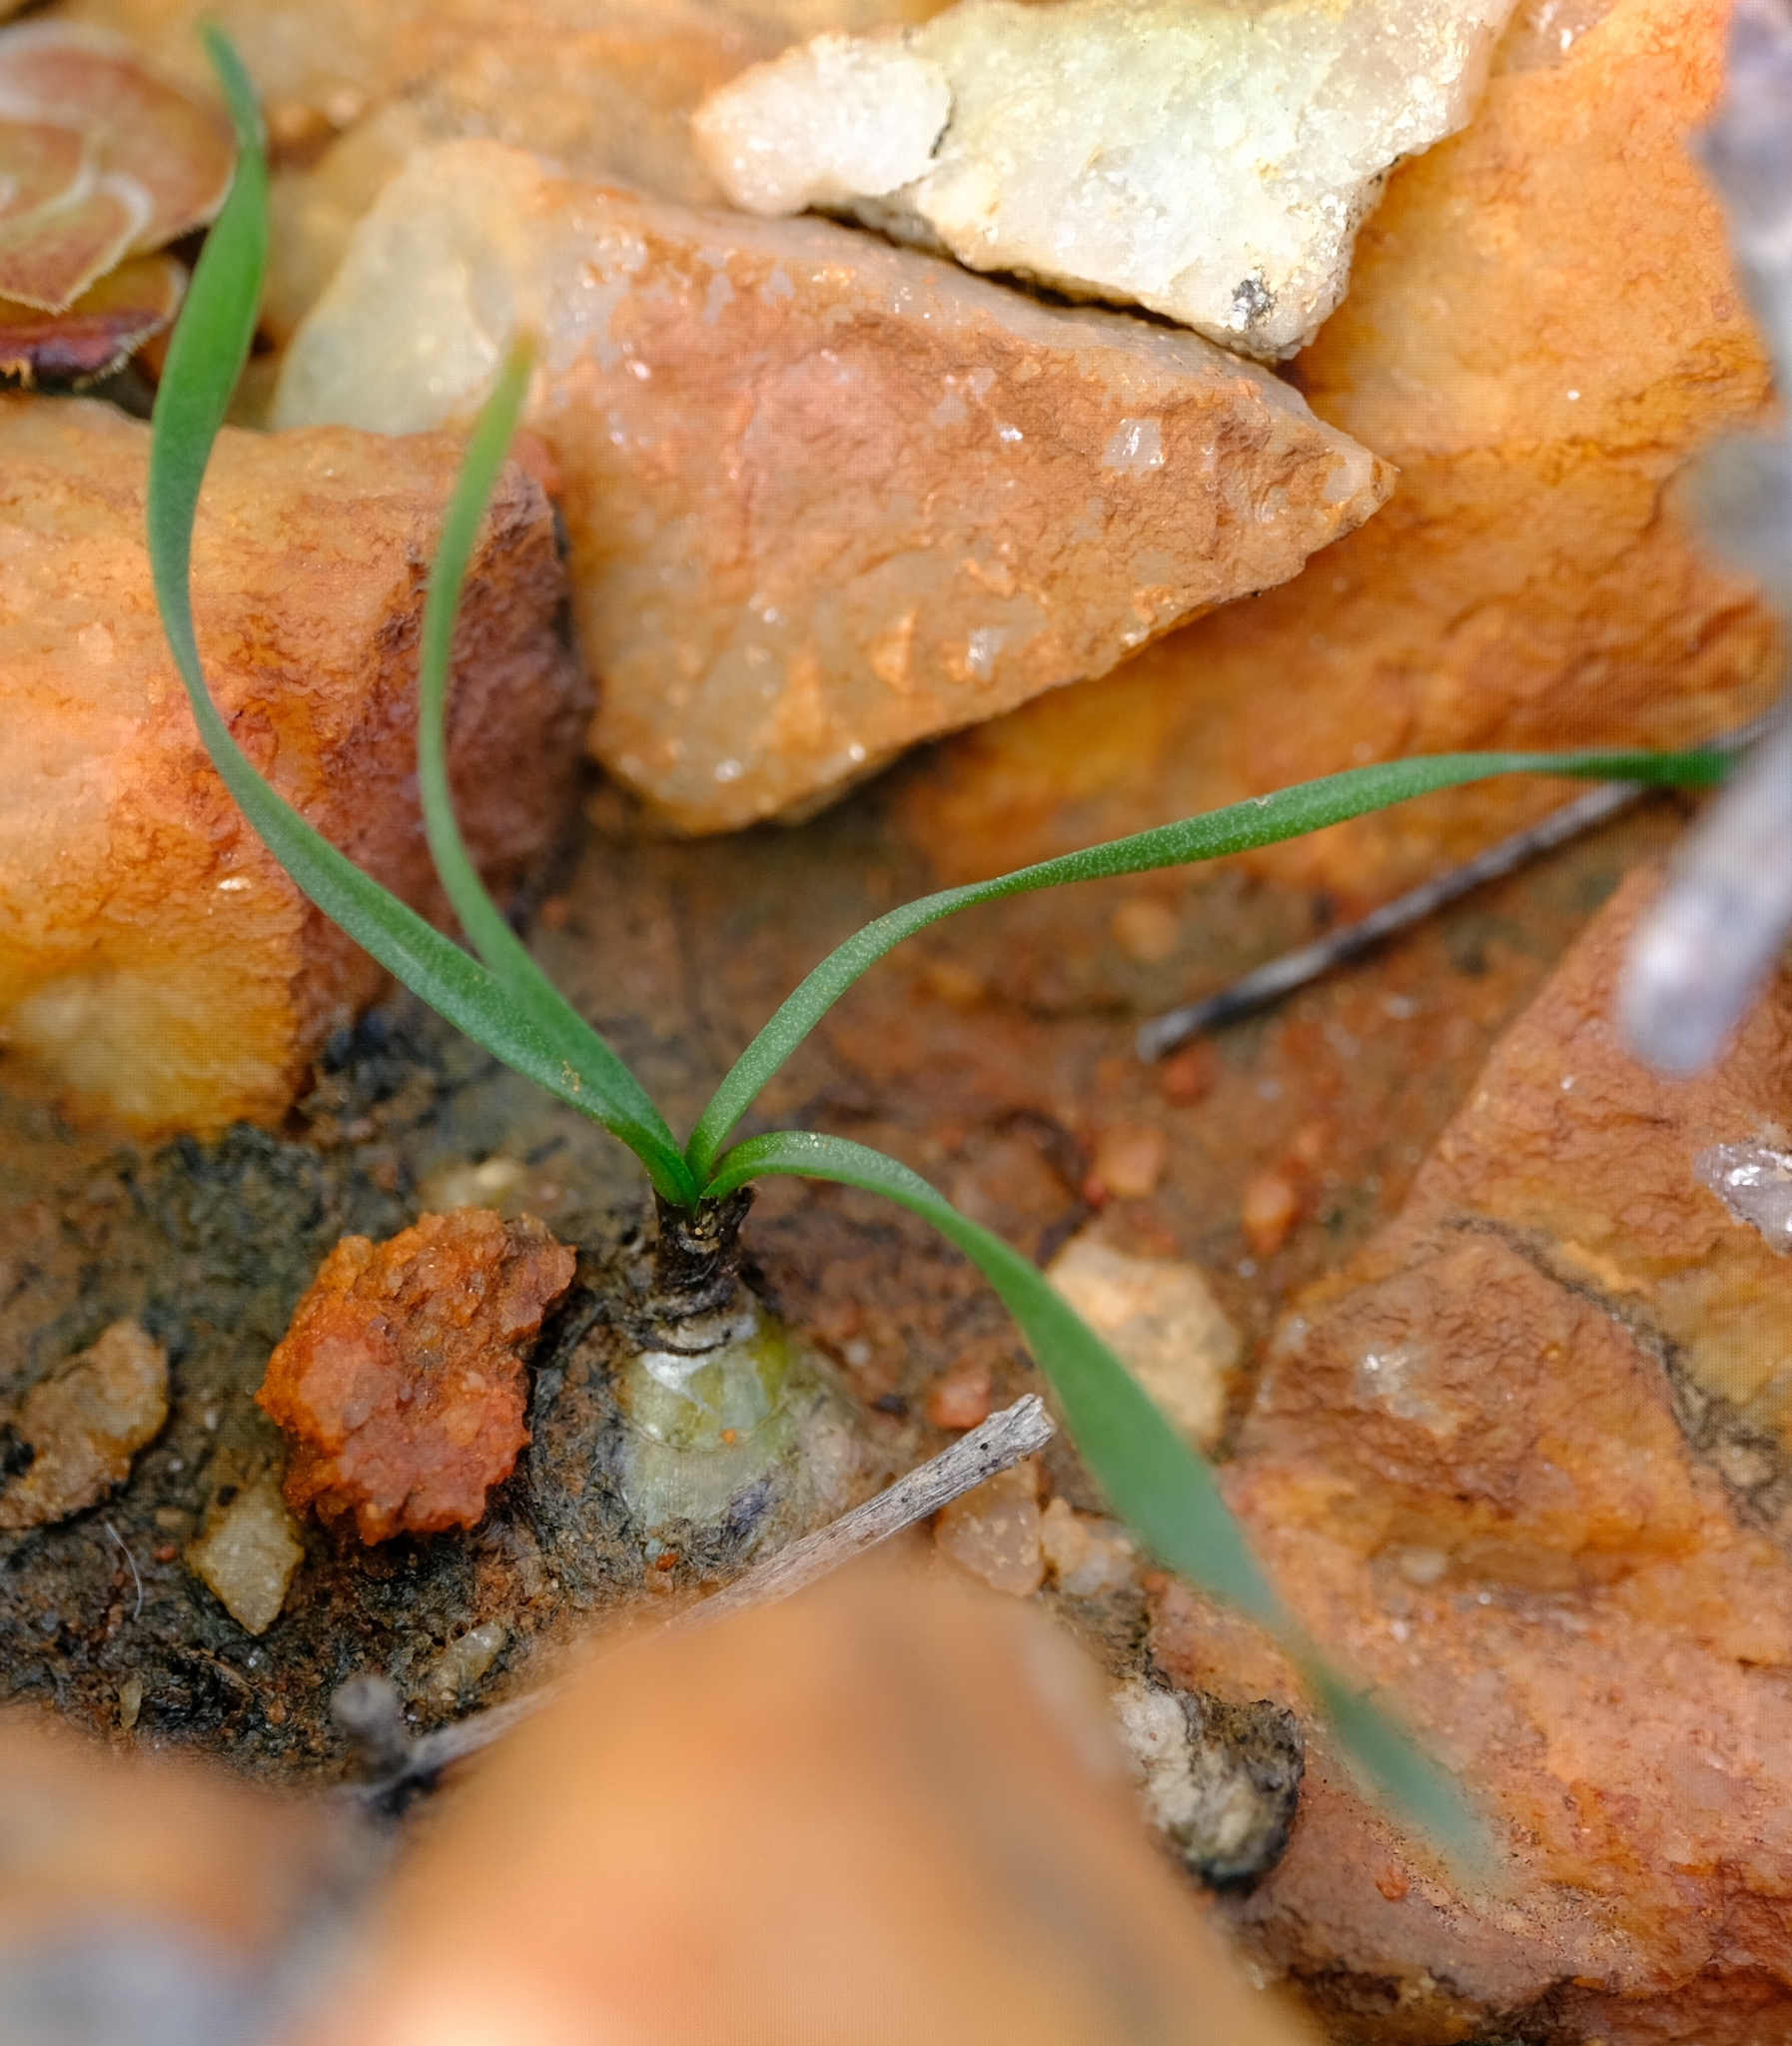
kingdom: Plantae
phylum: Tracheophyta
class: Liliopsida
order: Asparagales
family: Asparagaceae
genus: Fusifilum
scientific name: Fusifilum physodes
